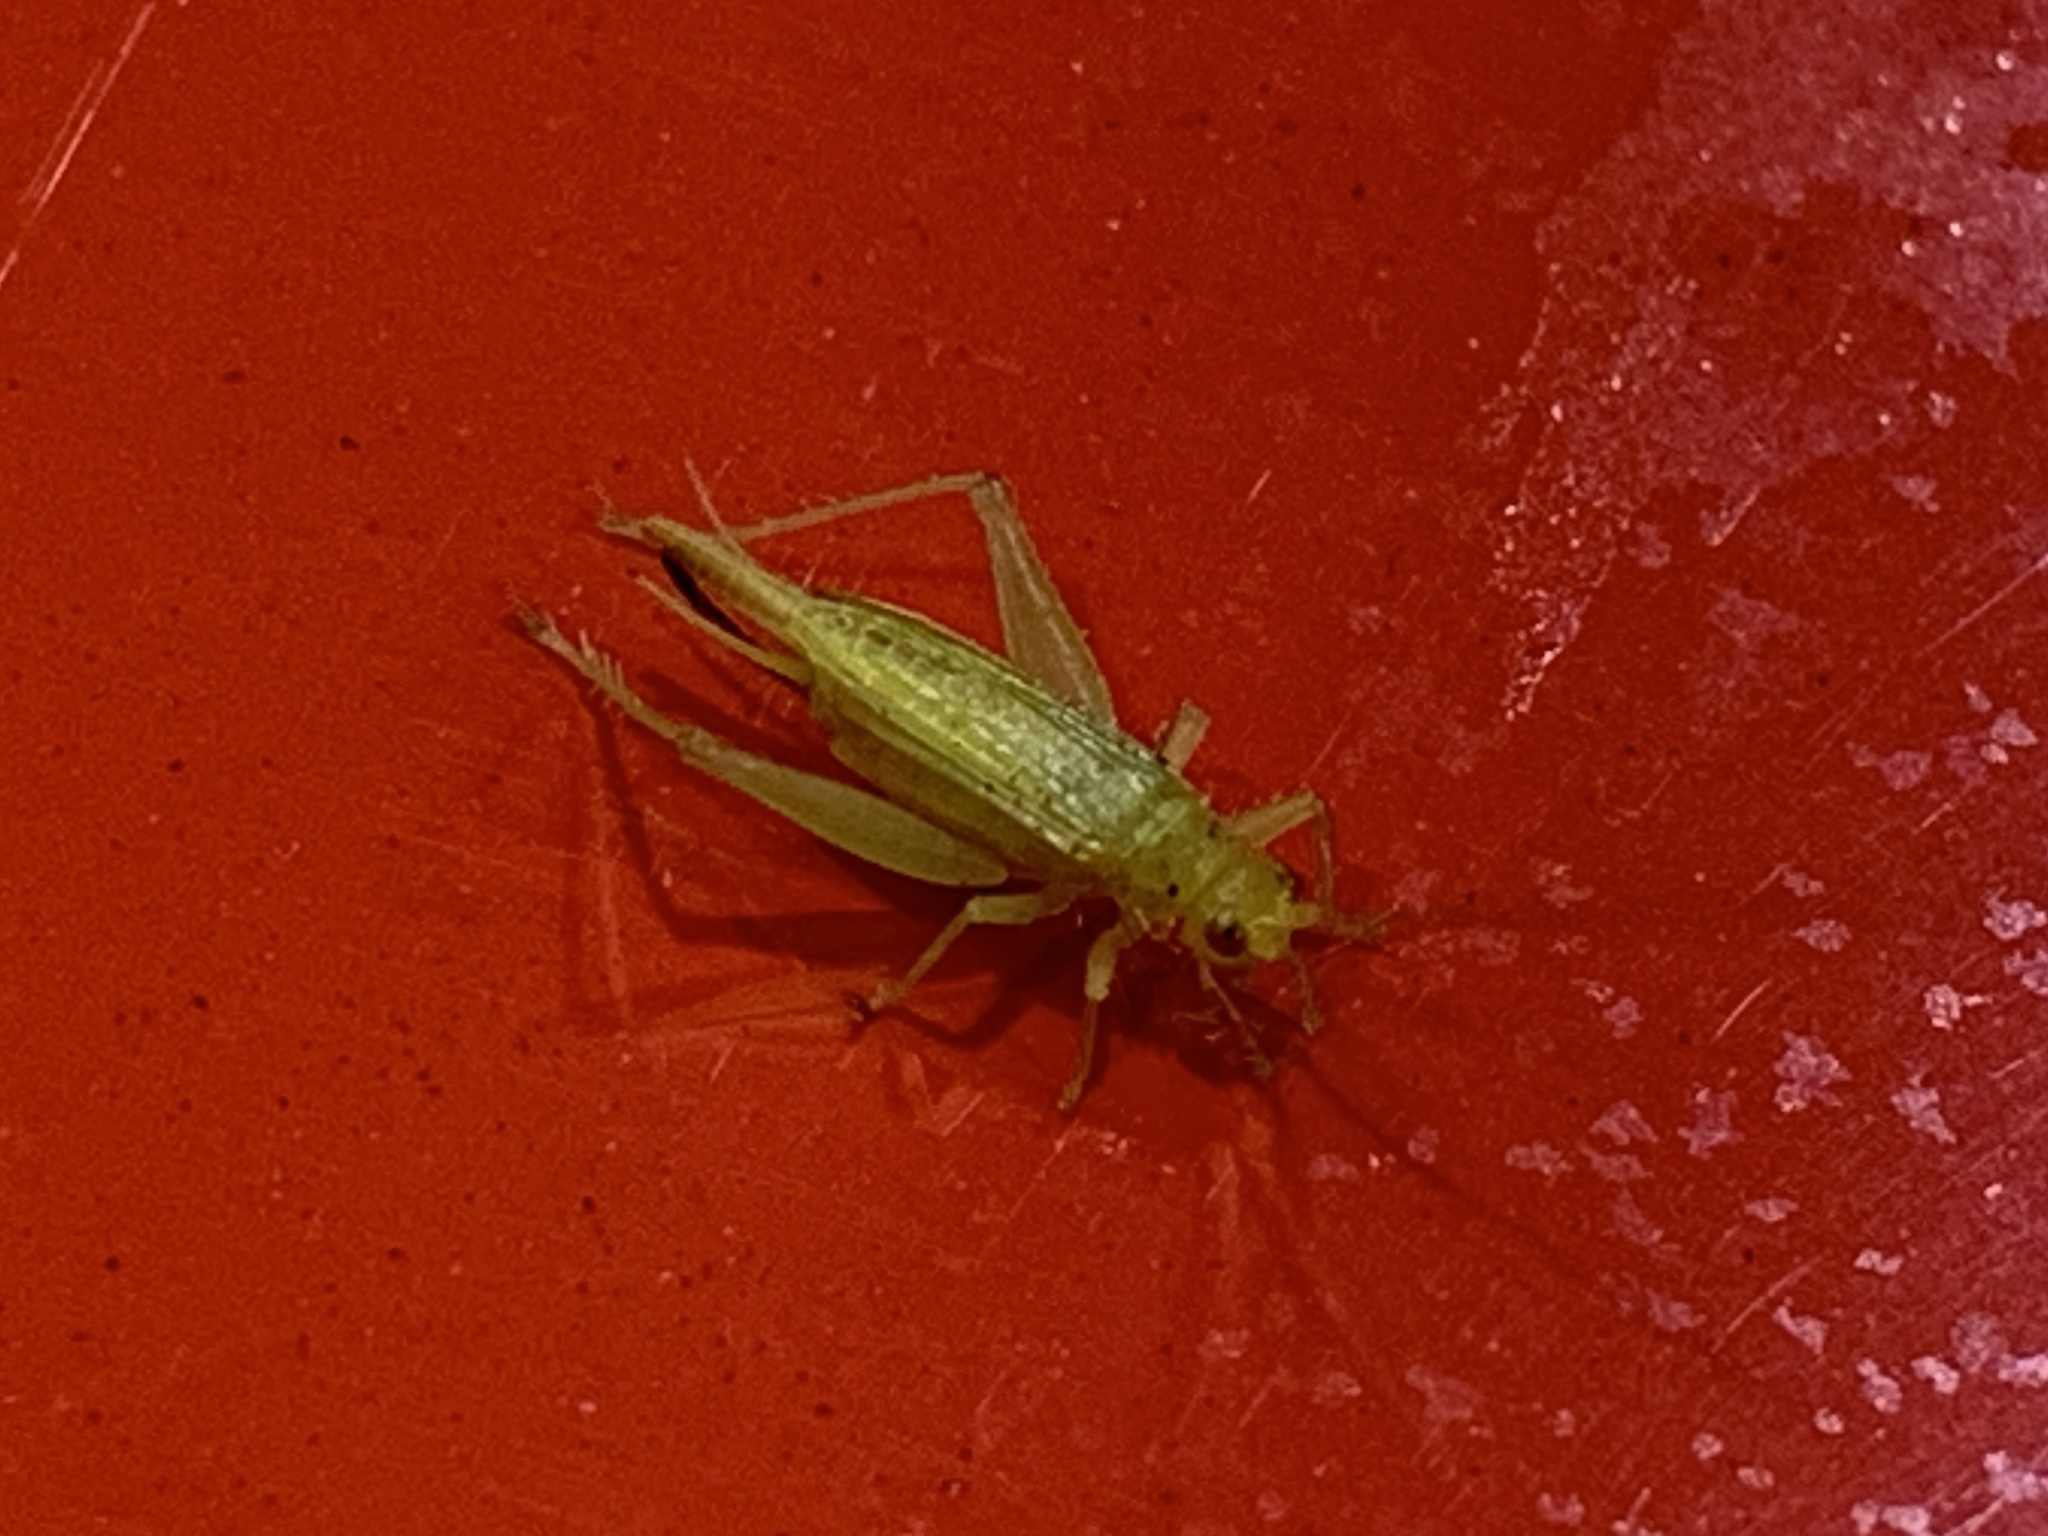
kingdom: Animalia
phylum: Arthropoda
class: Insecta
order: Orthoptera
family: Trigonidiidae
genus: Cyrtoxipha
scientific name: Cyrtoxipha columbiana
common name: Columbian trig
